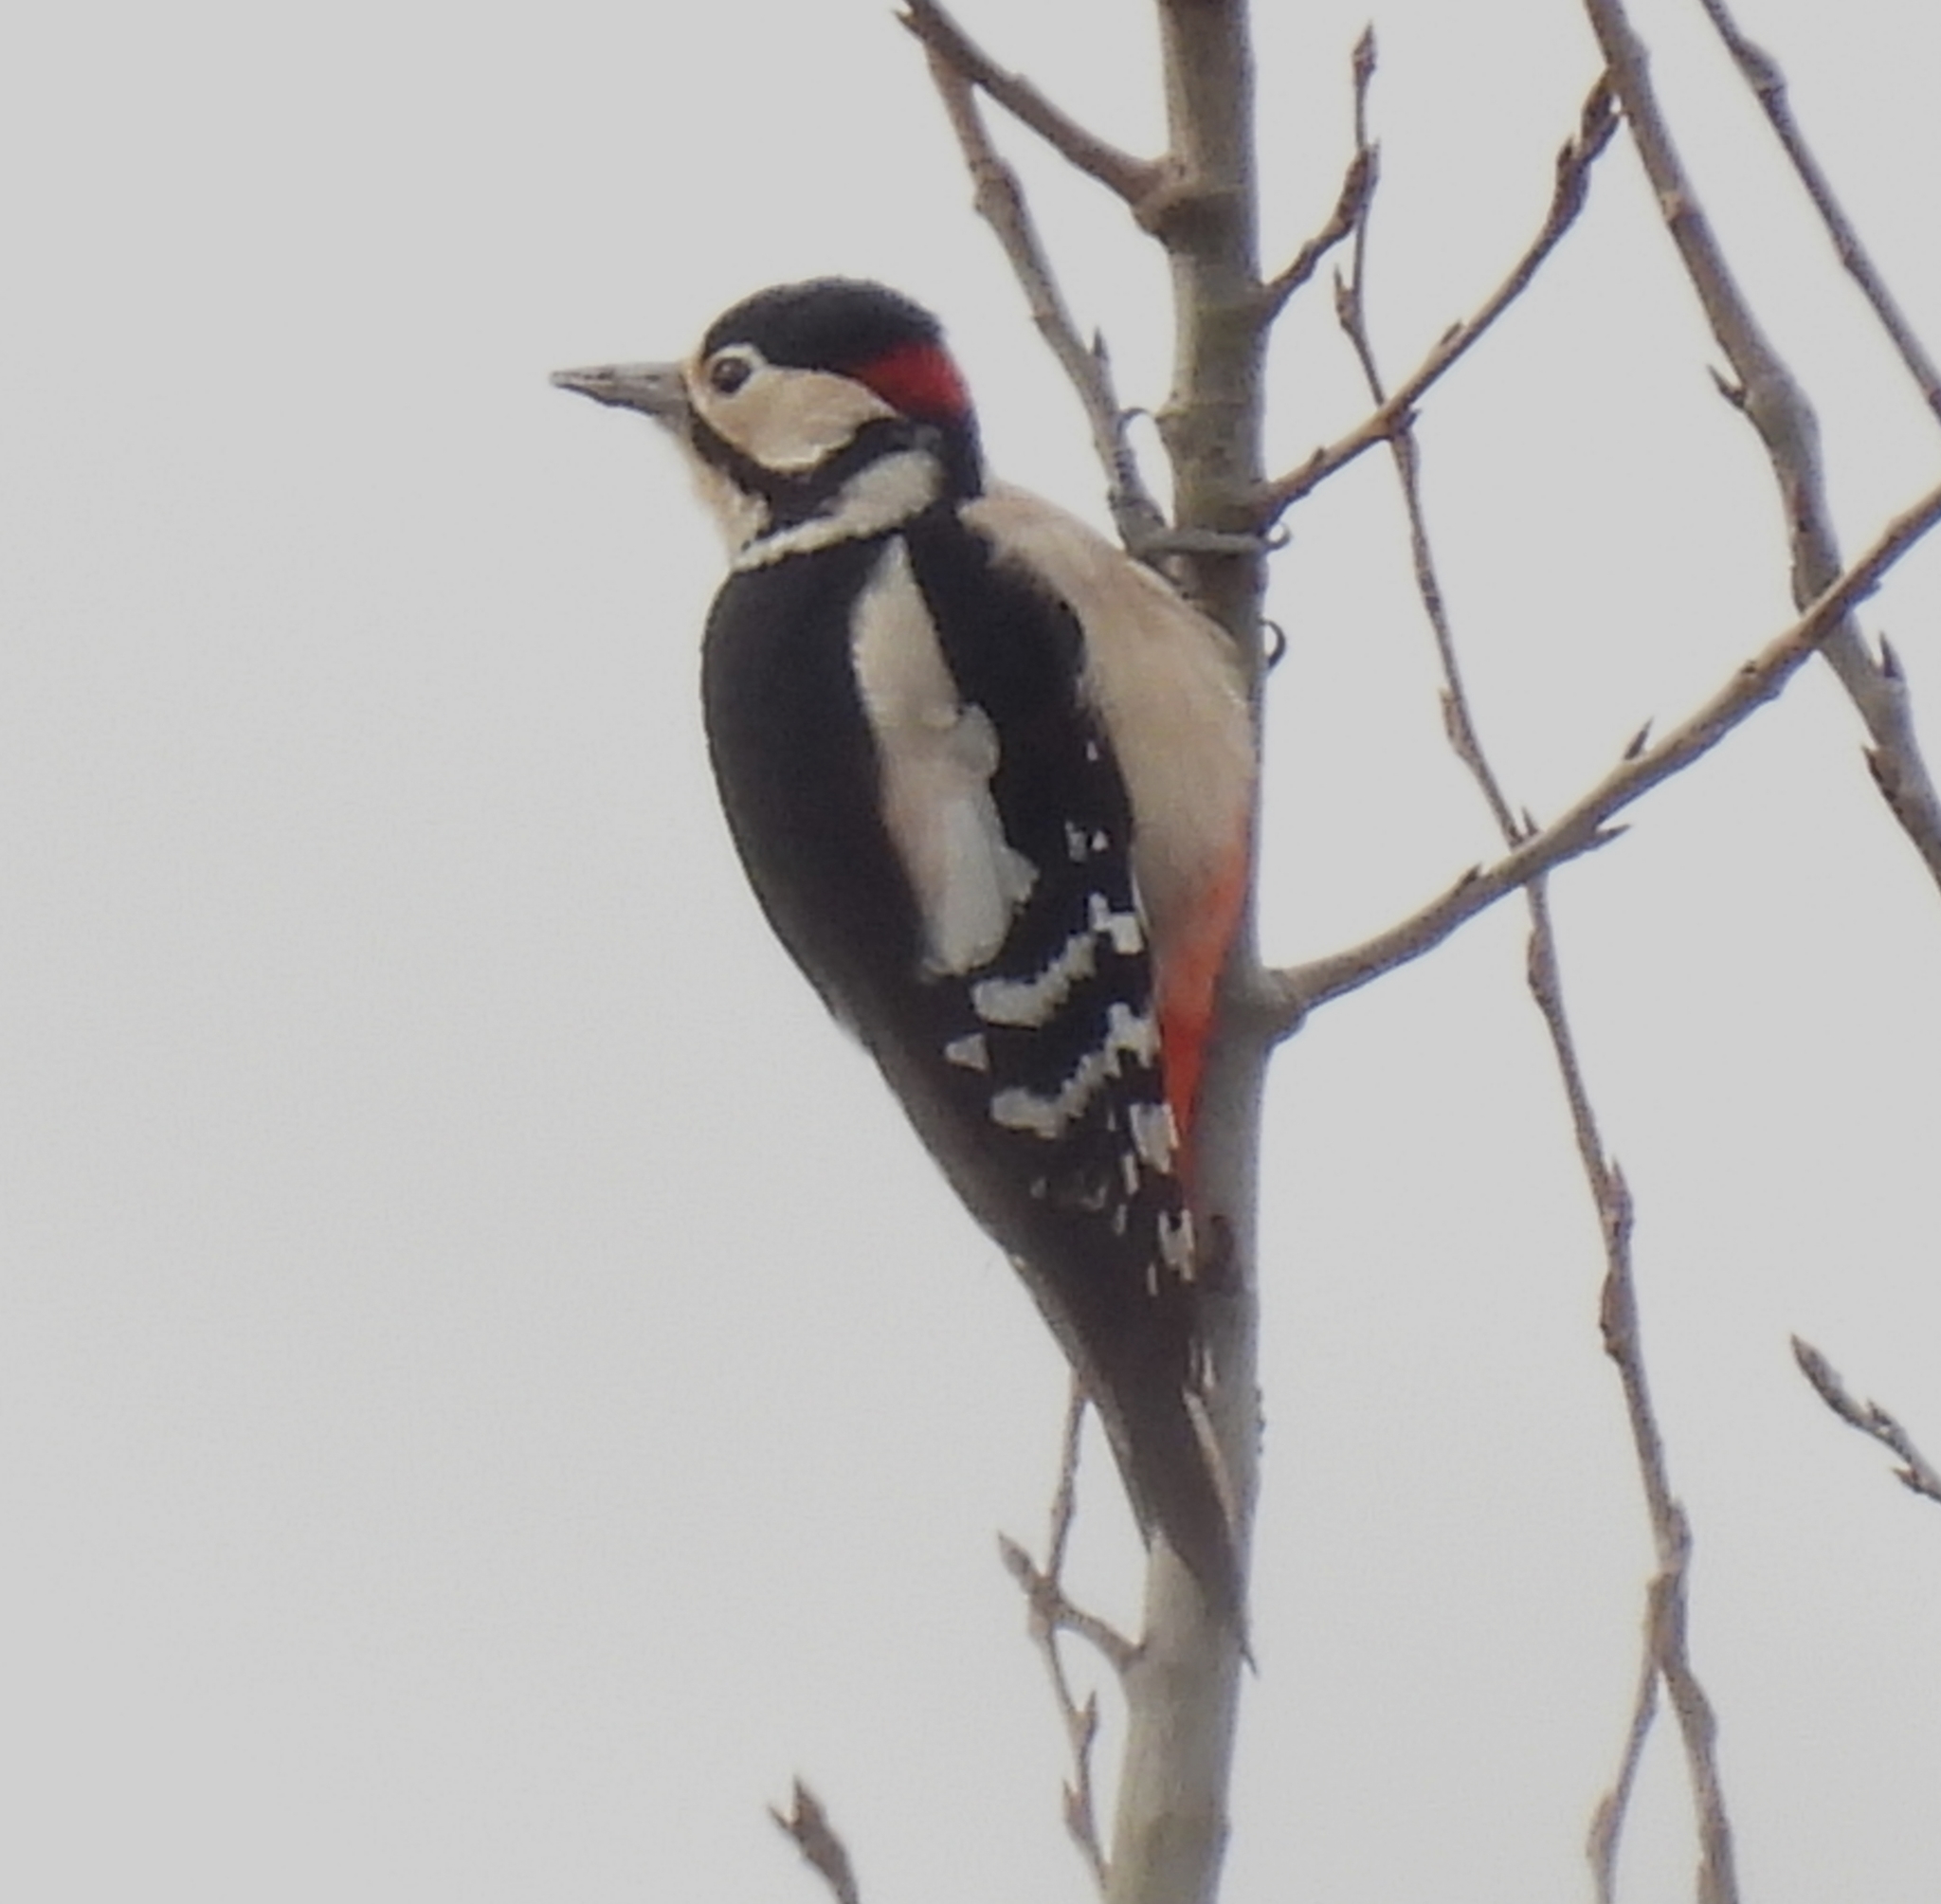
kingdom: Animalia
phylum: Chordata
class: Aves
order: Piciformes
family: Picidae
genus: Dendrocopos
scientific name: Dendrocopos major
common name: Great spotted woodpecker
